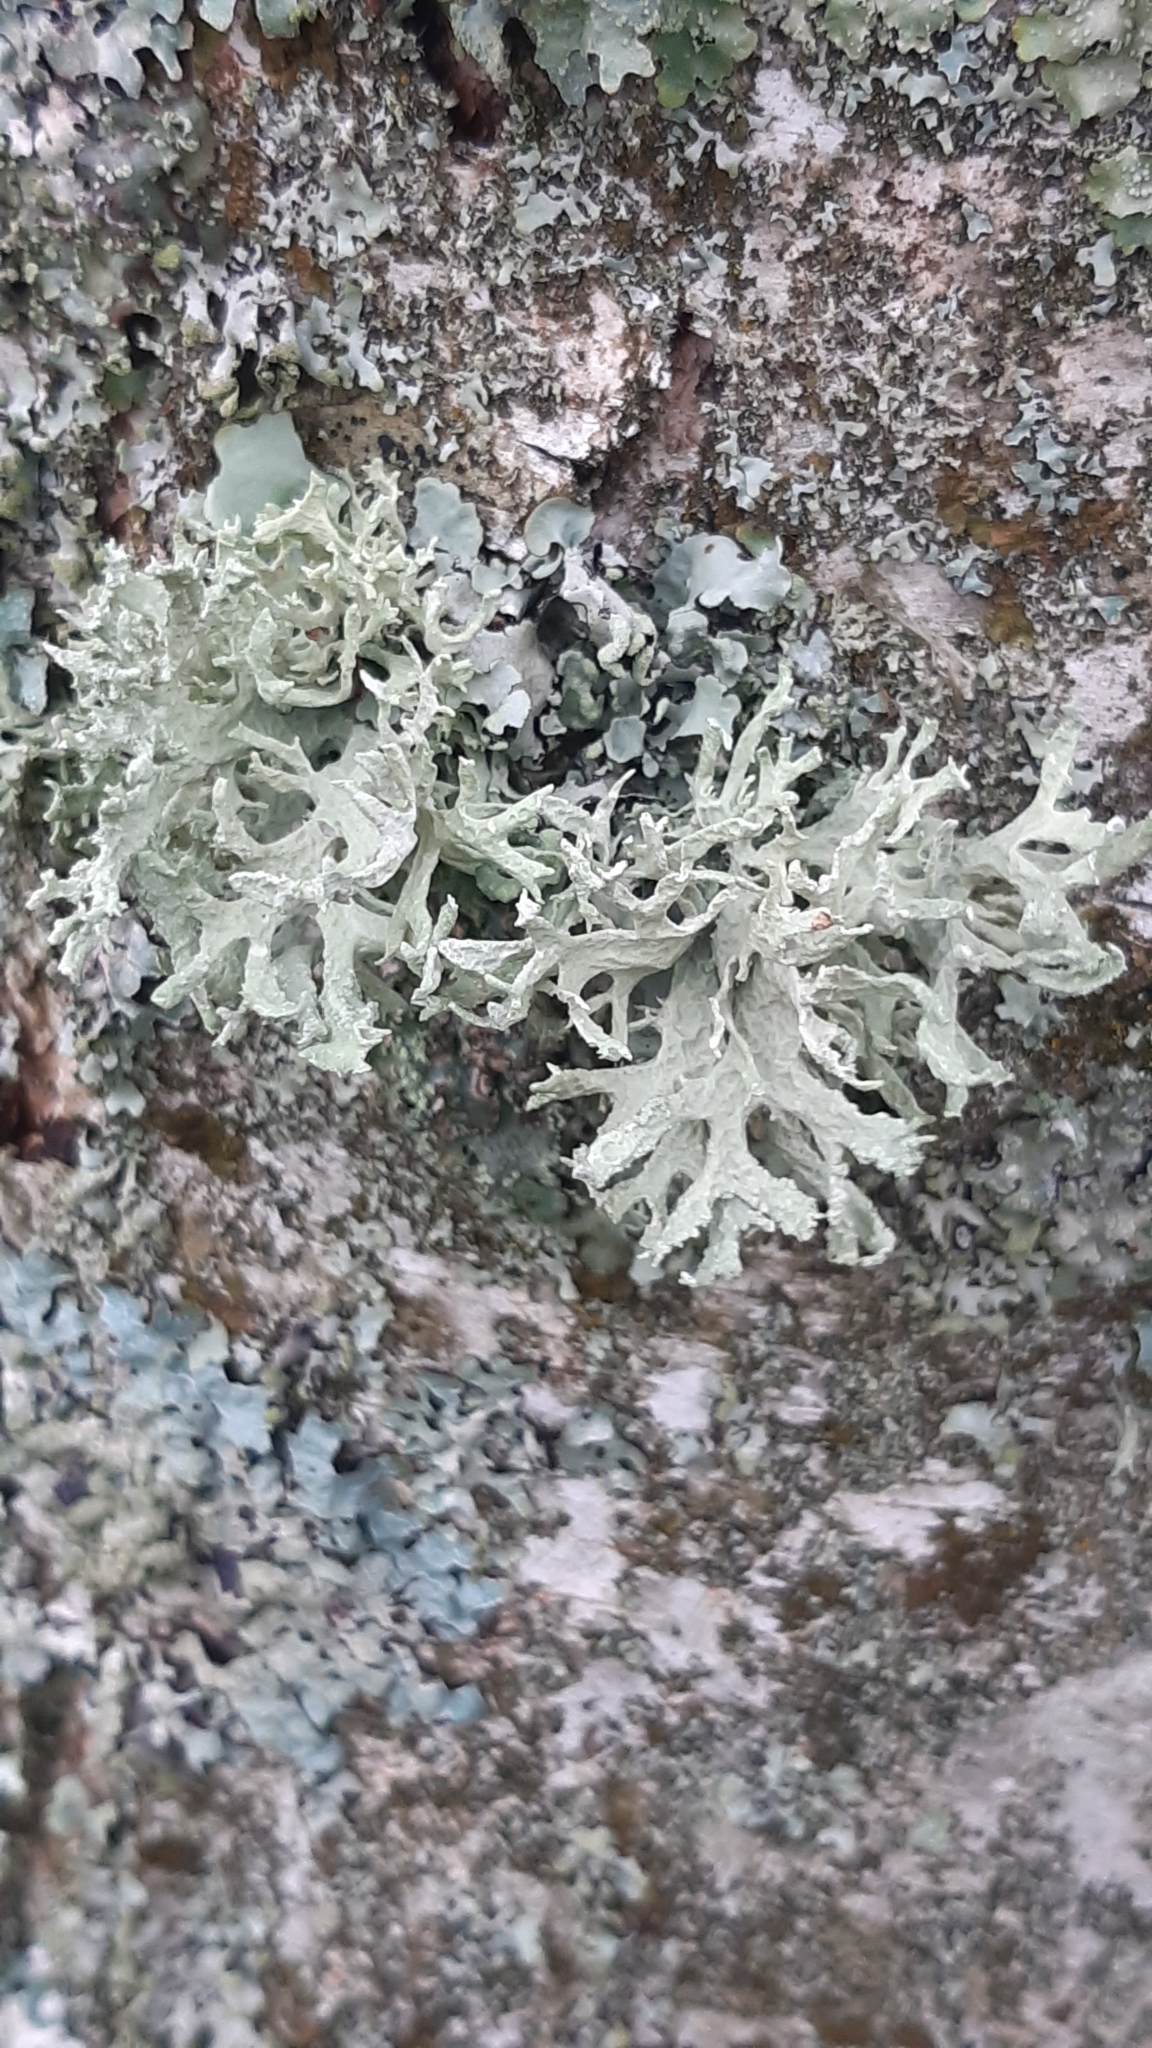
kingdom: Fungi
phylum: Ascomycota
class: Lecanoromycetes
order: Lecanorales
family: Parmeliaceae
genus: Evernia
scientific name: Evernia prunastri
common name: Oak moss
